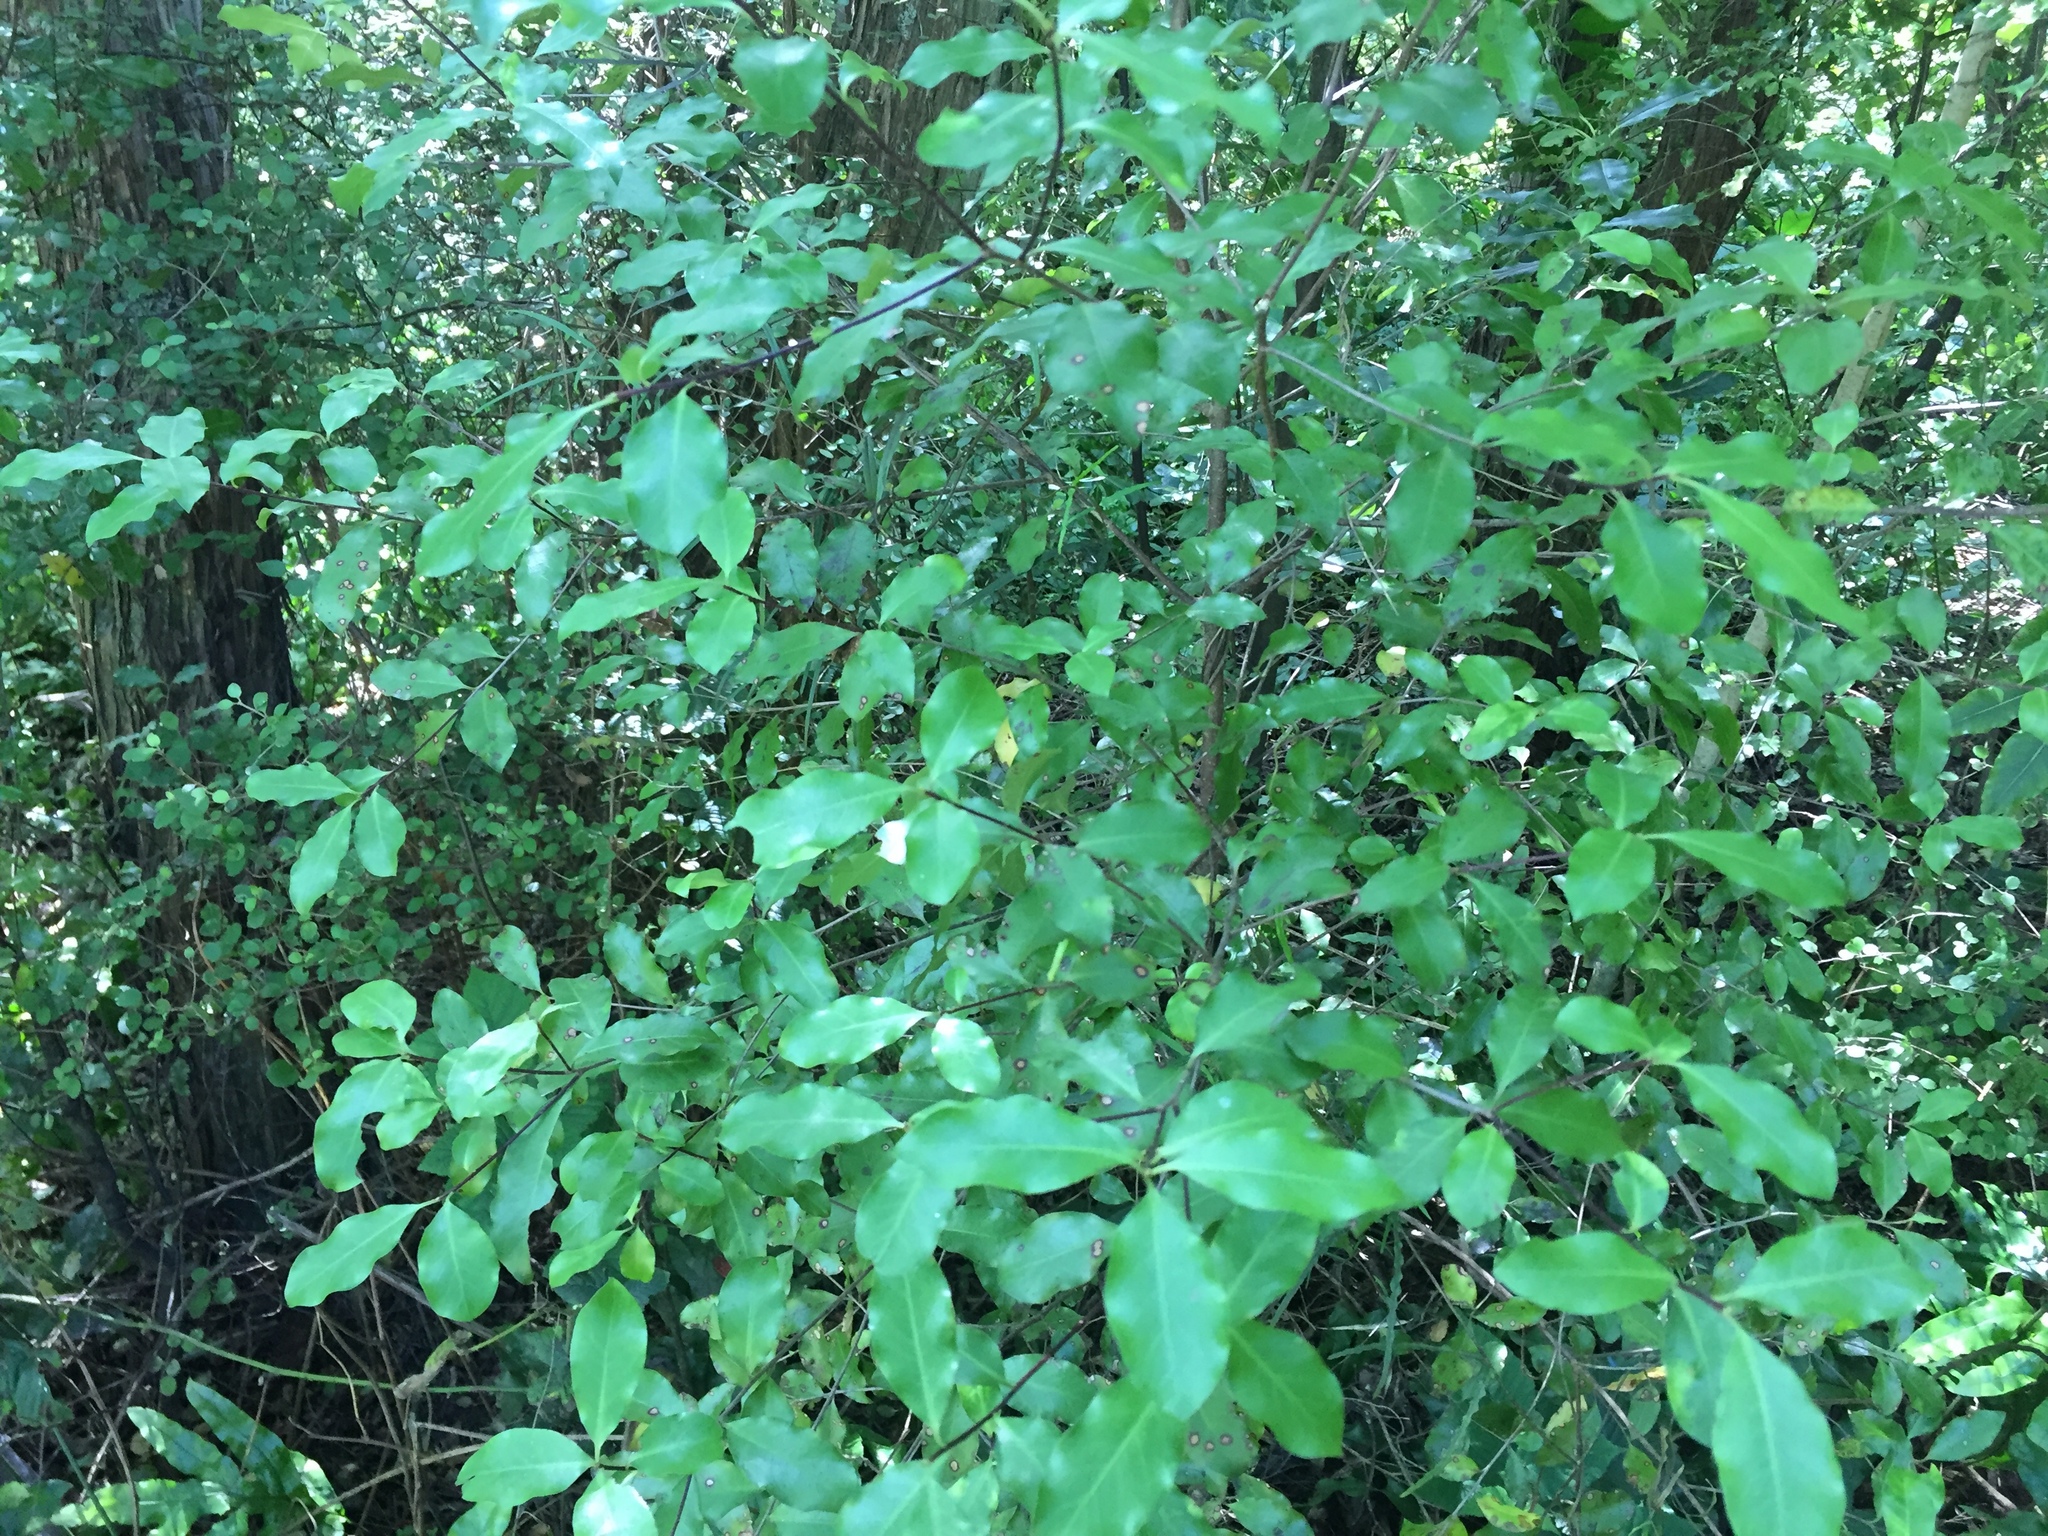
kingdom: Plantae
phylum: Tracheophyta
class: Magnoliopsida
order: Apiales
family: Pittosporaceae
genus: Pittosporum
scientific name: Pittosporum tenuifolium
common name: Kohuhu
